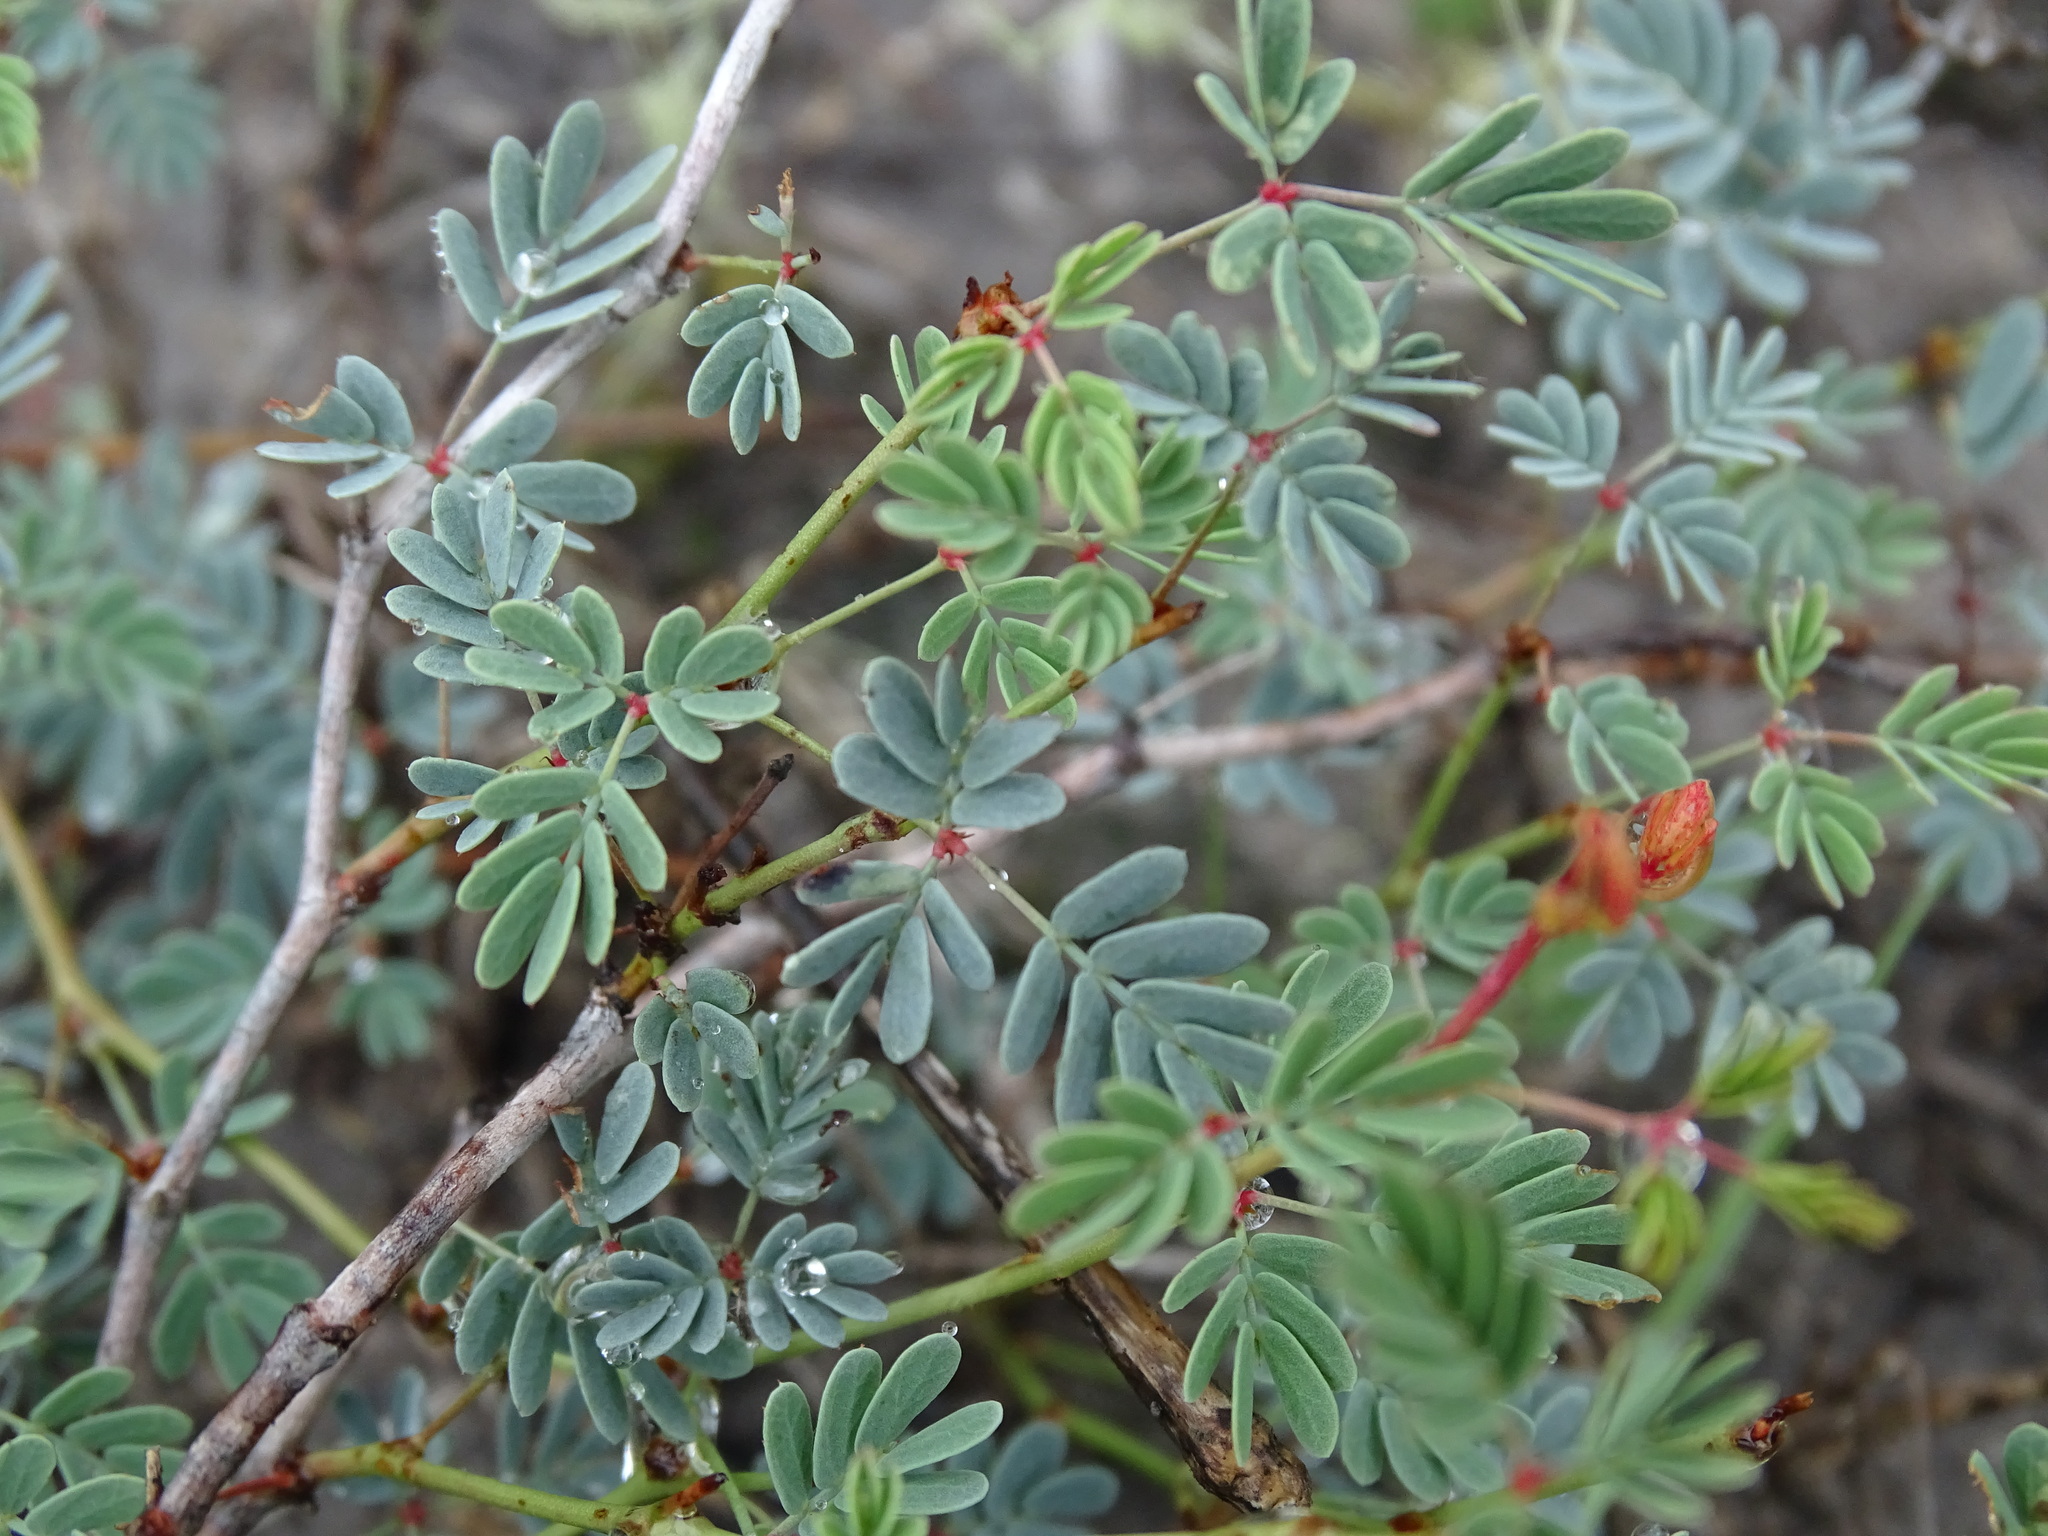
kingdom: Plantae
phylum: Tracheophyta
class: Magnoliopsida
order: Fabales
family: Fabaceae
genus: Hoffmannseggia
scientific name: Hoffmannseggia glauca
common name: Pignut
